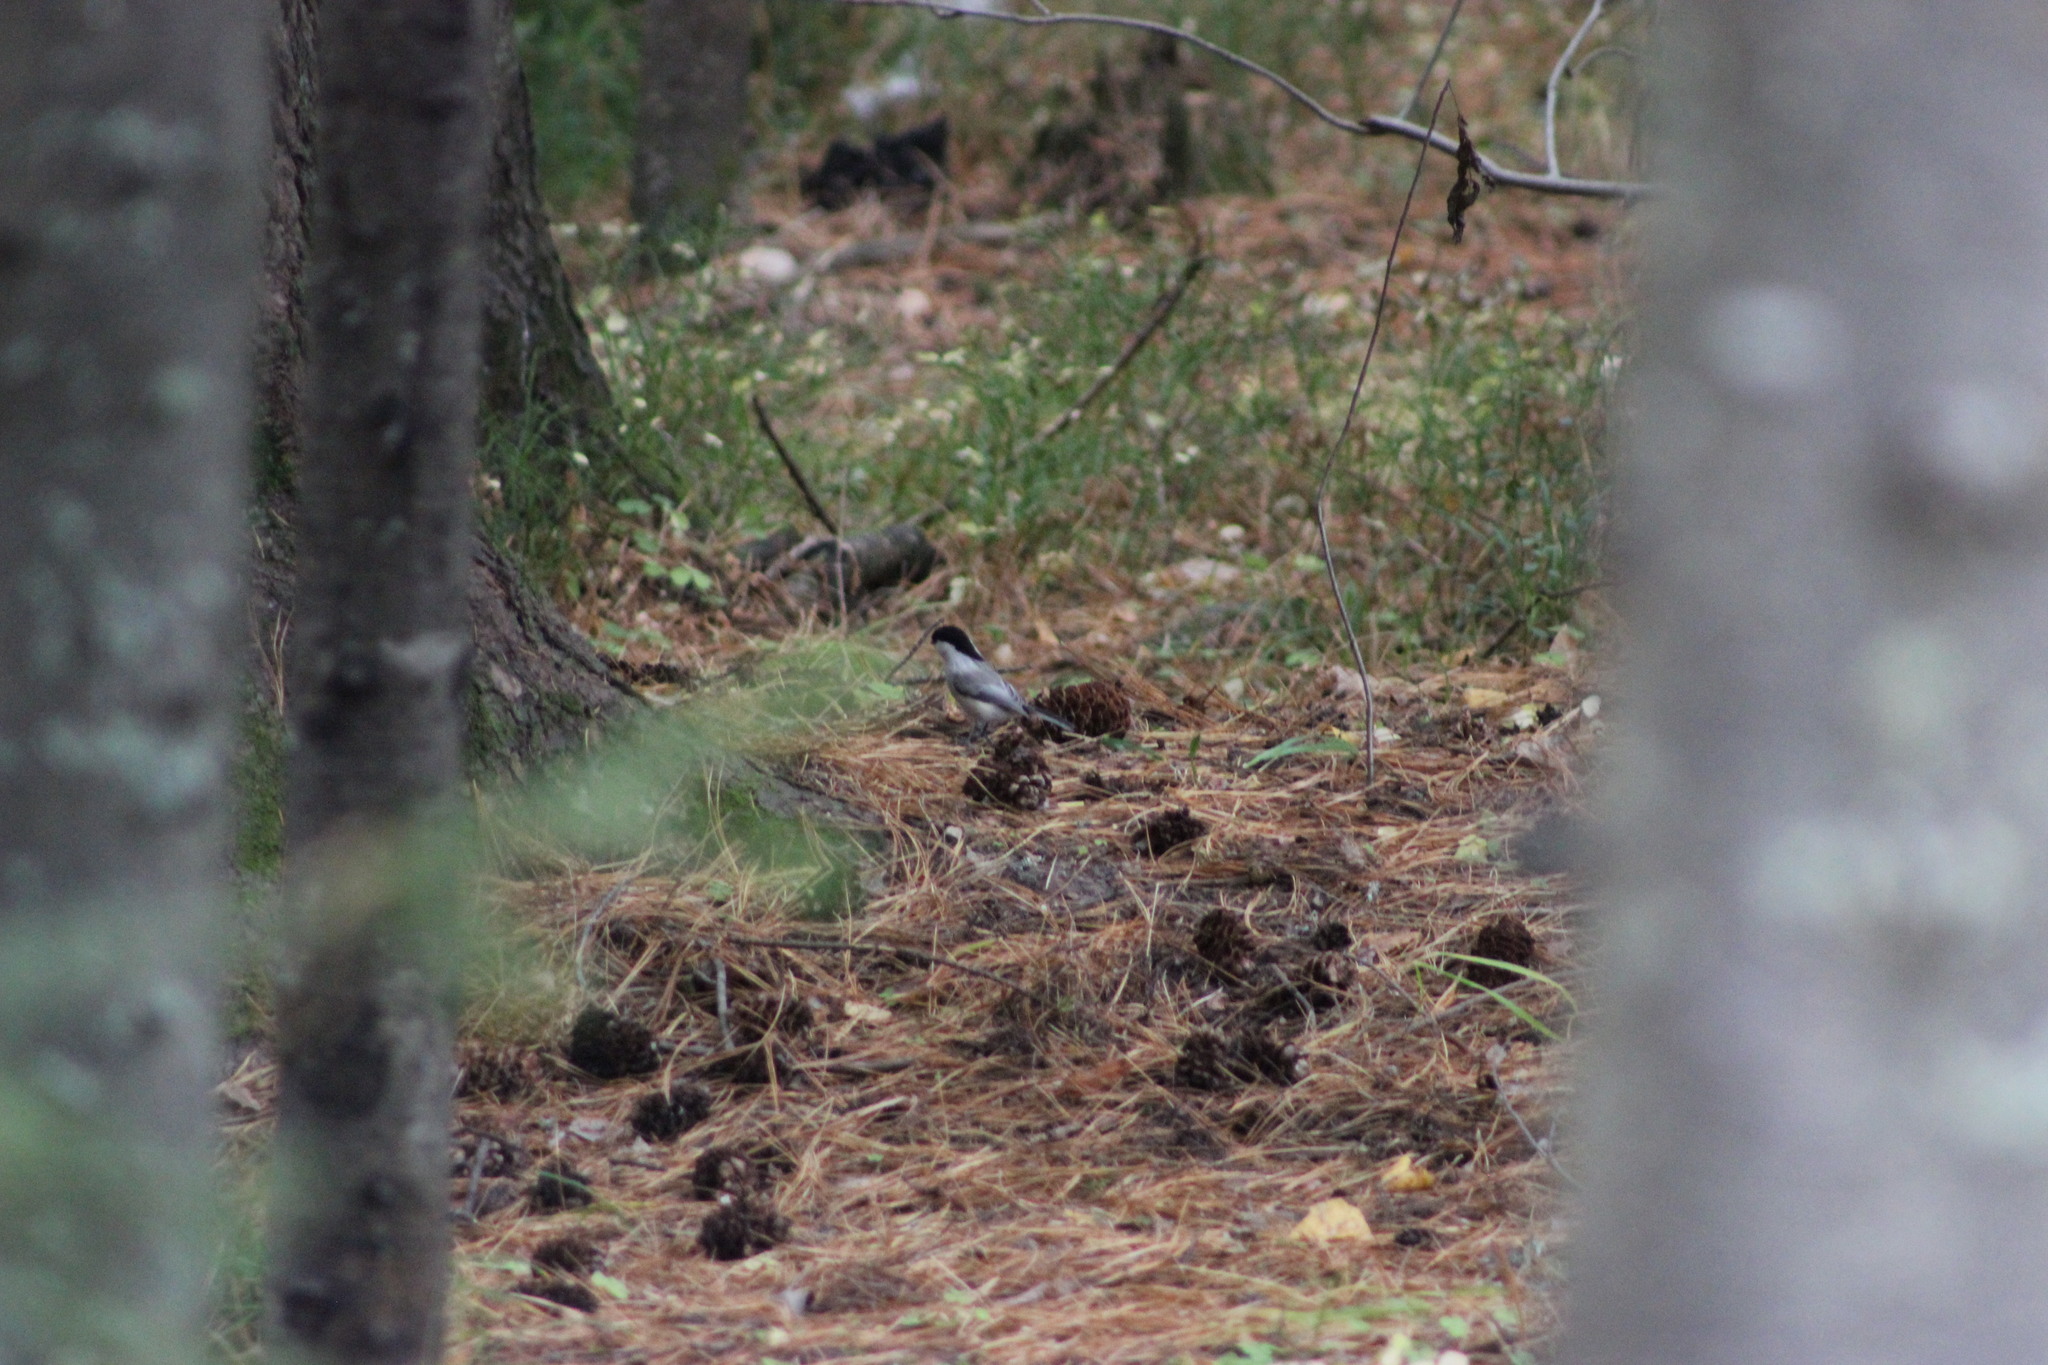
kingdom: Animalia
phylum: Chordata
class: Aves
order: Passeriformes
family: Paridae
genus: Poecile
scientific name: Poecile montanus
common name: Willow tit
